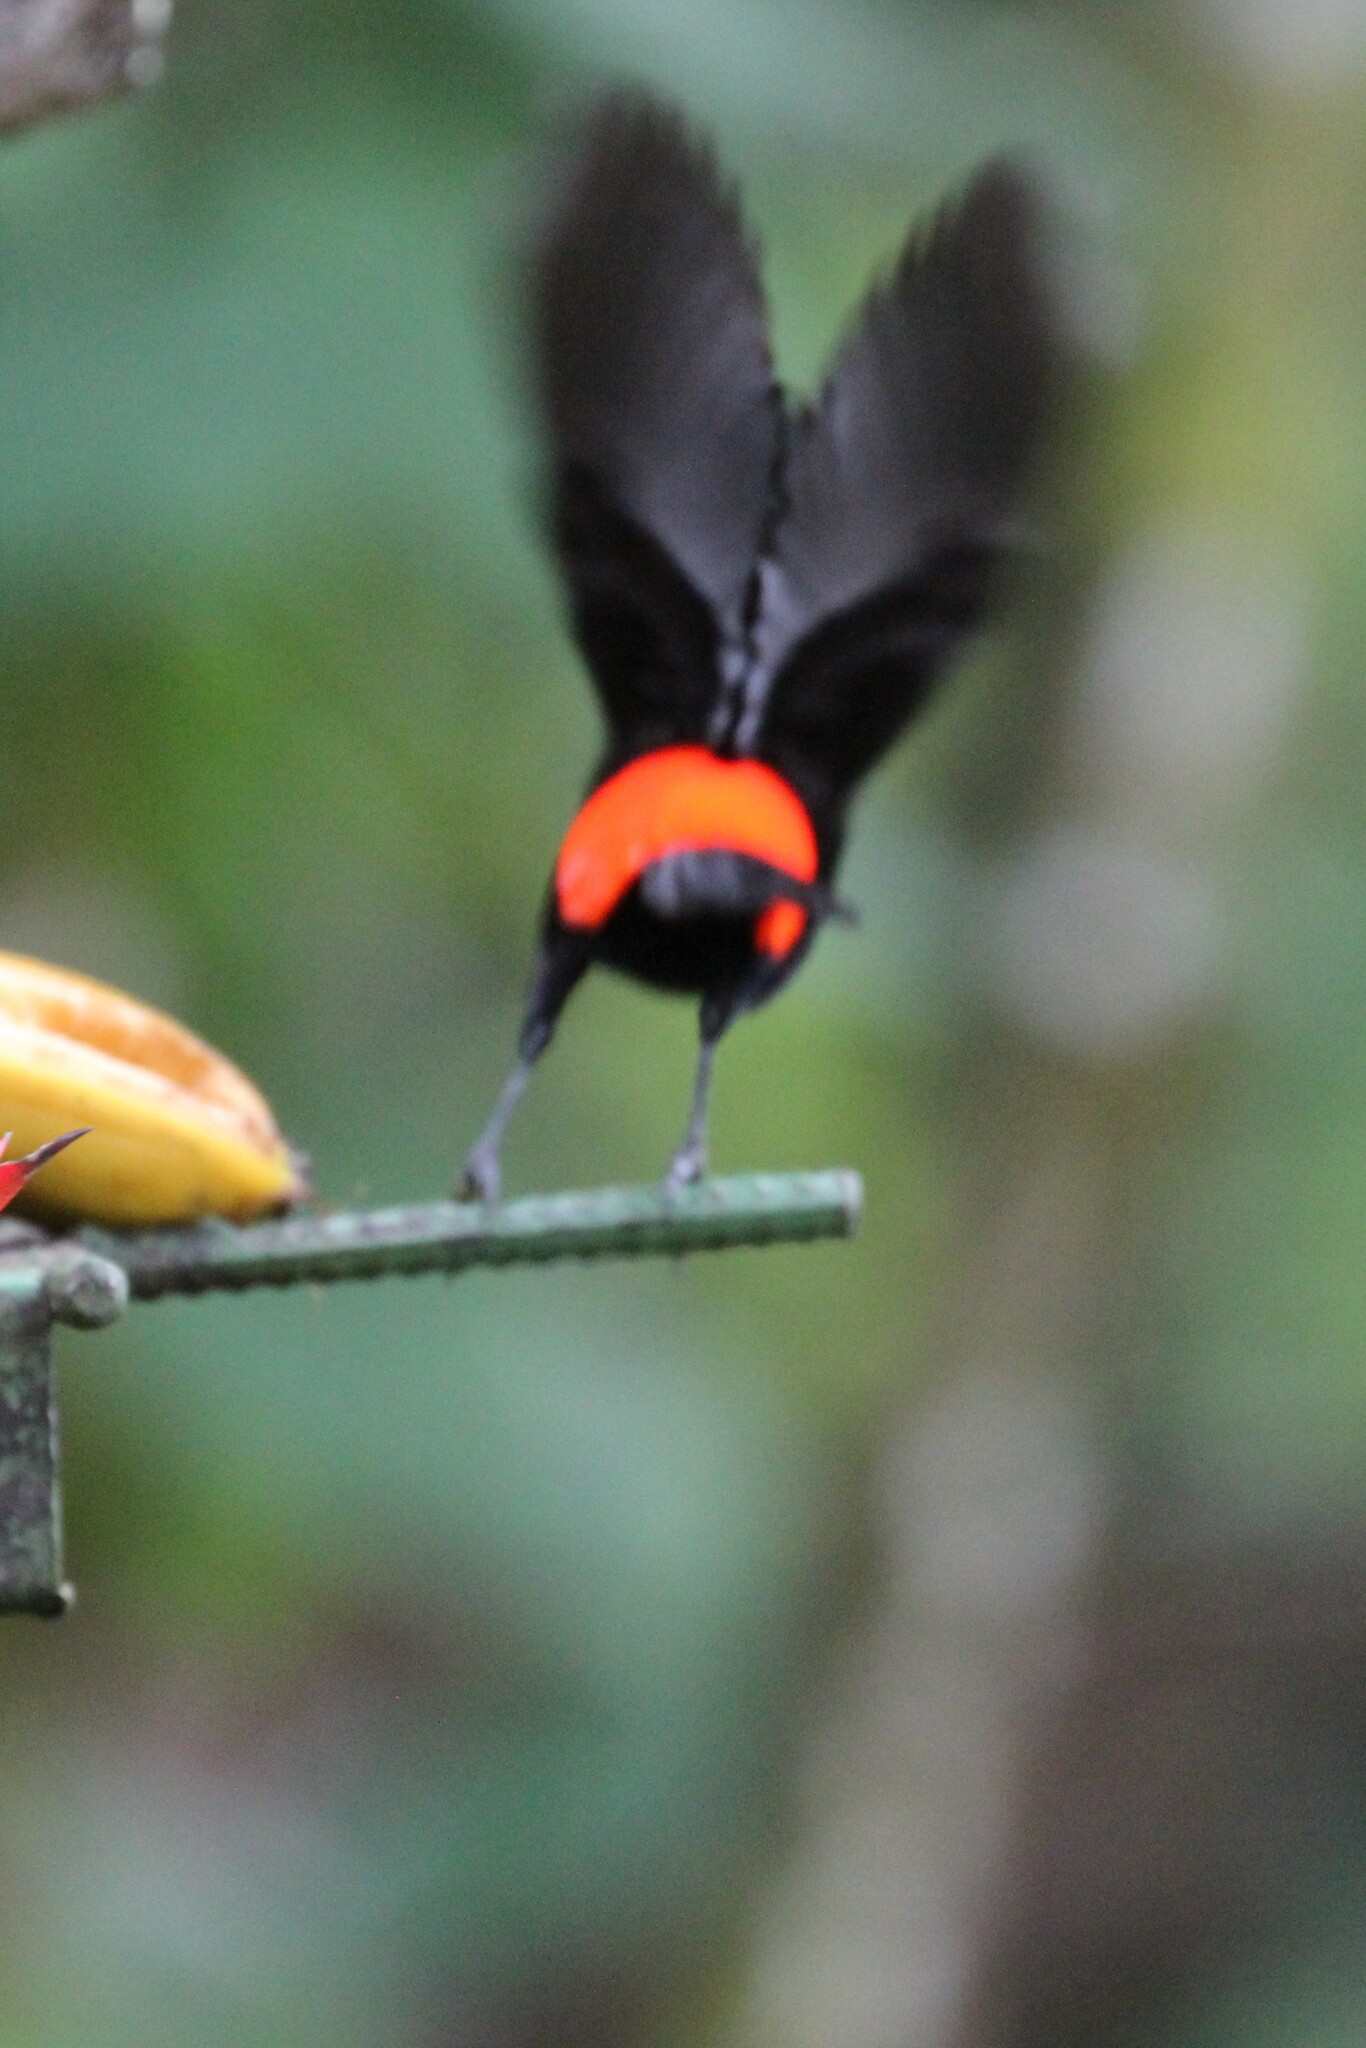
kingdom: Animalia
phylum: Chordata
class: Aves
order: Passeriformes
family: Thraupidae
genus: Ramphocelus
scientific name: Ramphocelus passerinii
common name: Passerini's tanager
